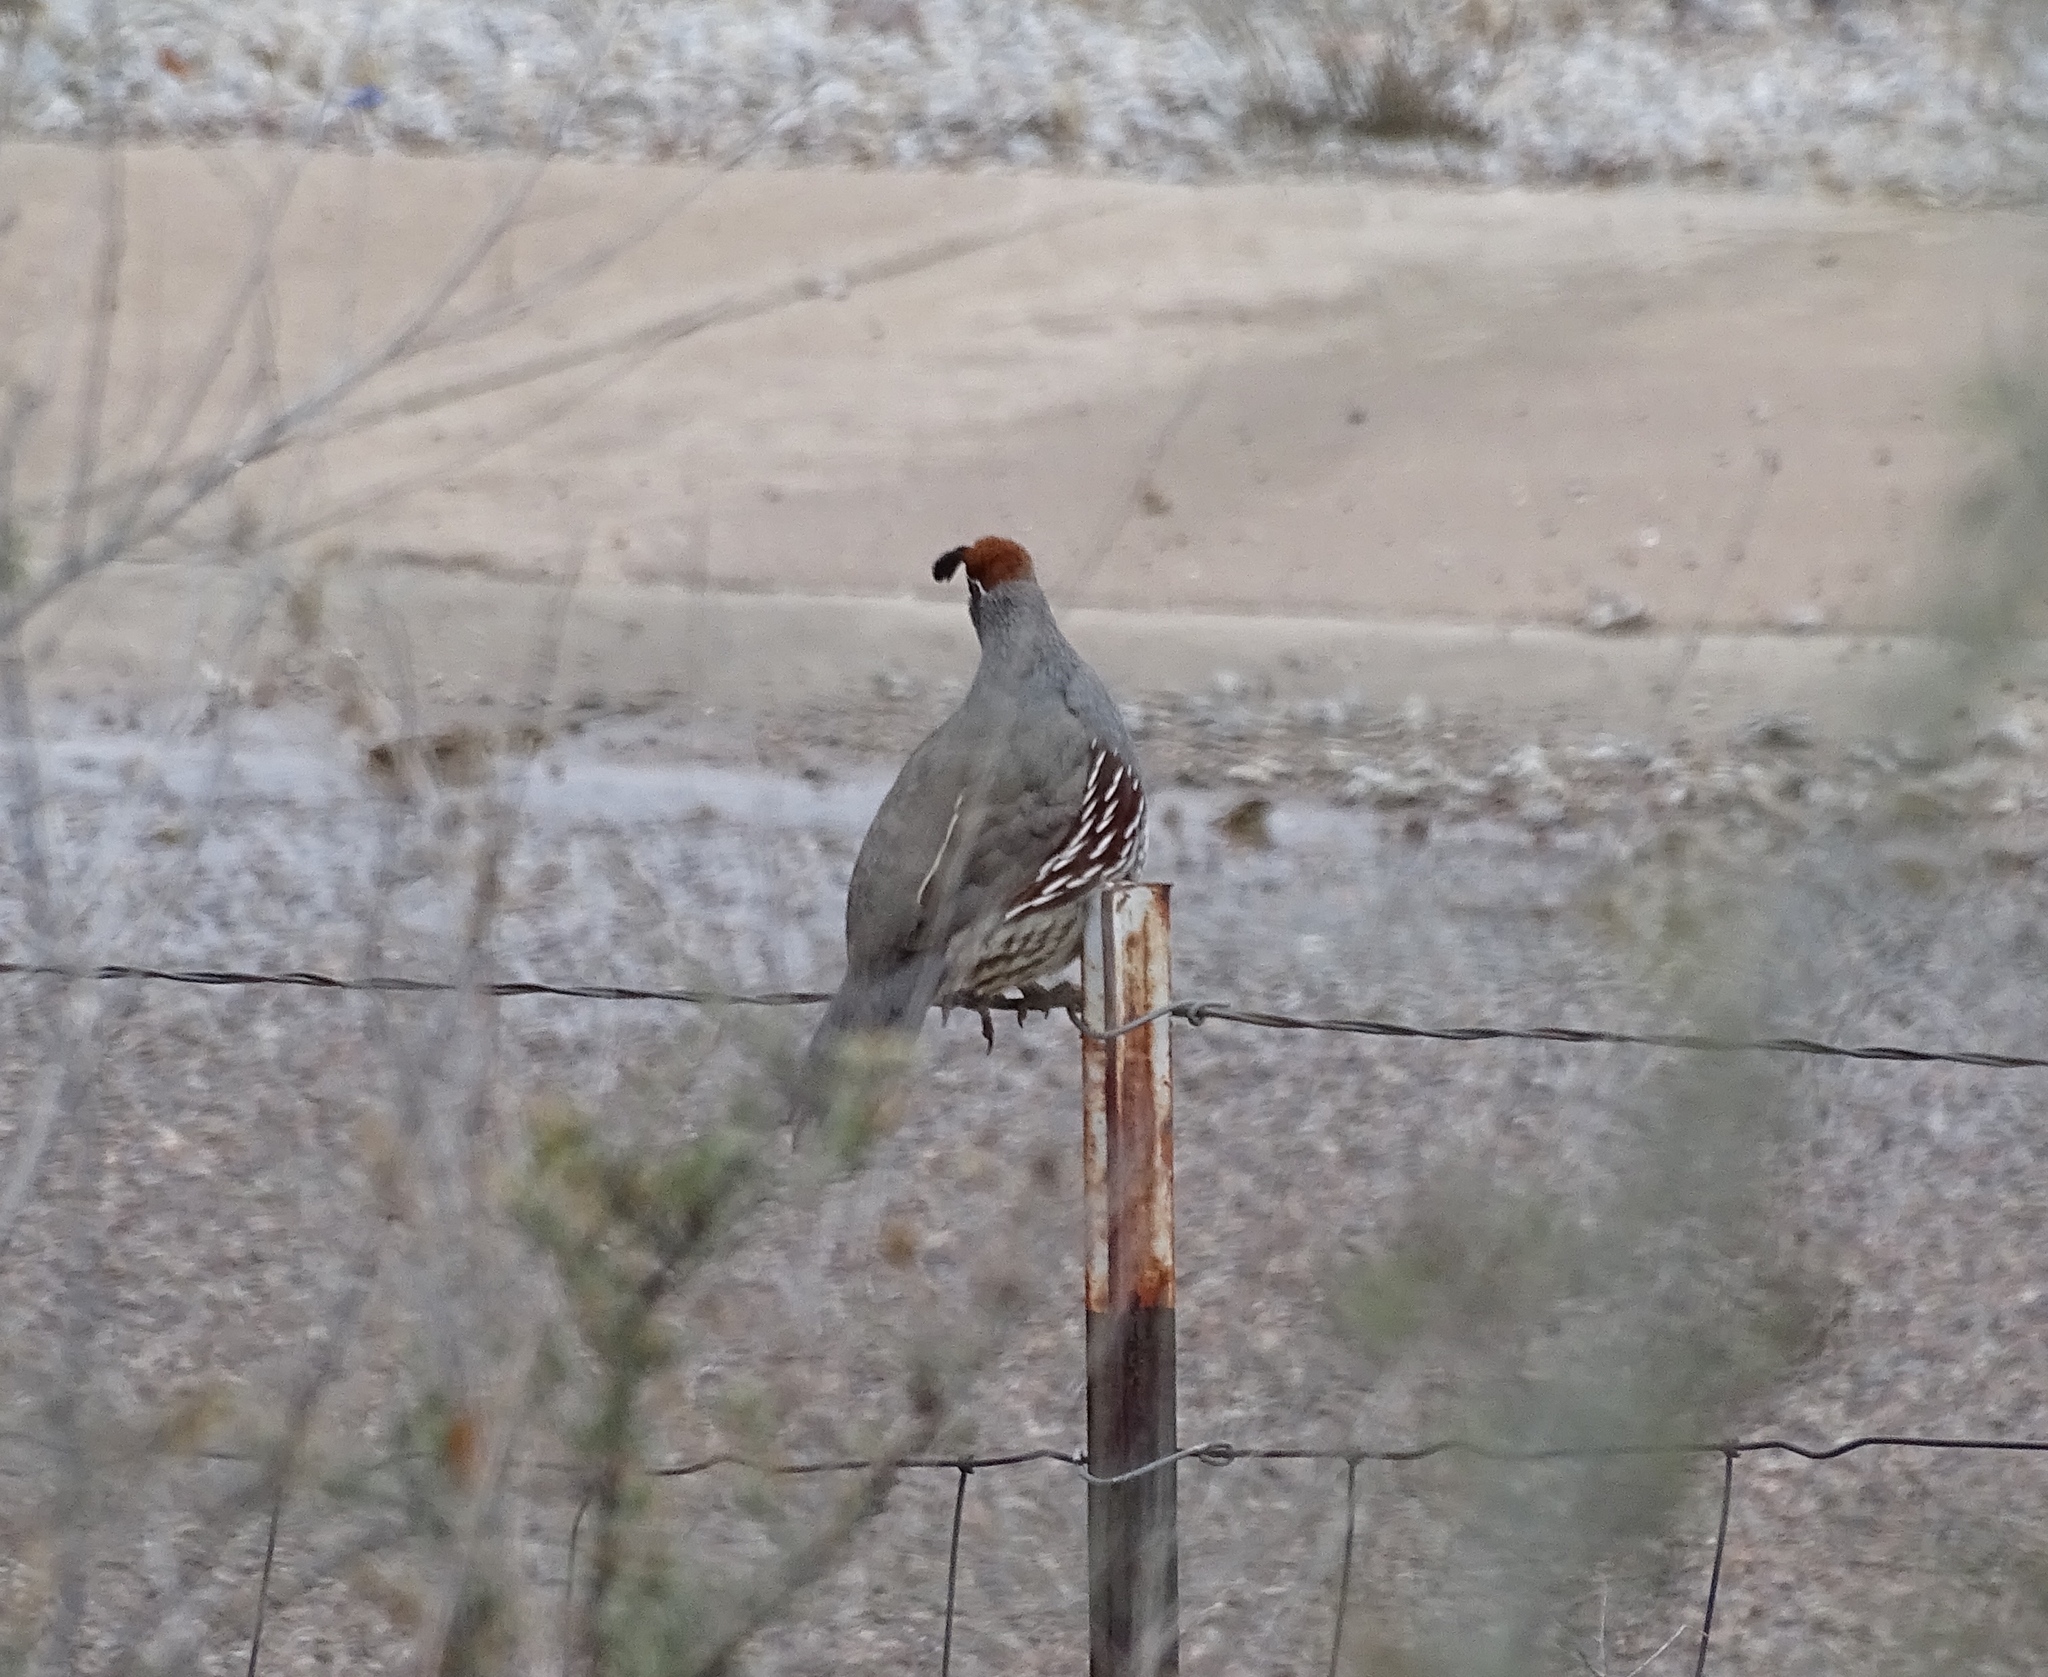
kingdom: Animalia
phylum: Chordata
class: Aves
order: Galliformes
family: Odontophoridae
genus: Callipepla
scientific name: Callipepla gambelii
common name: Gambel's quail
